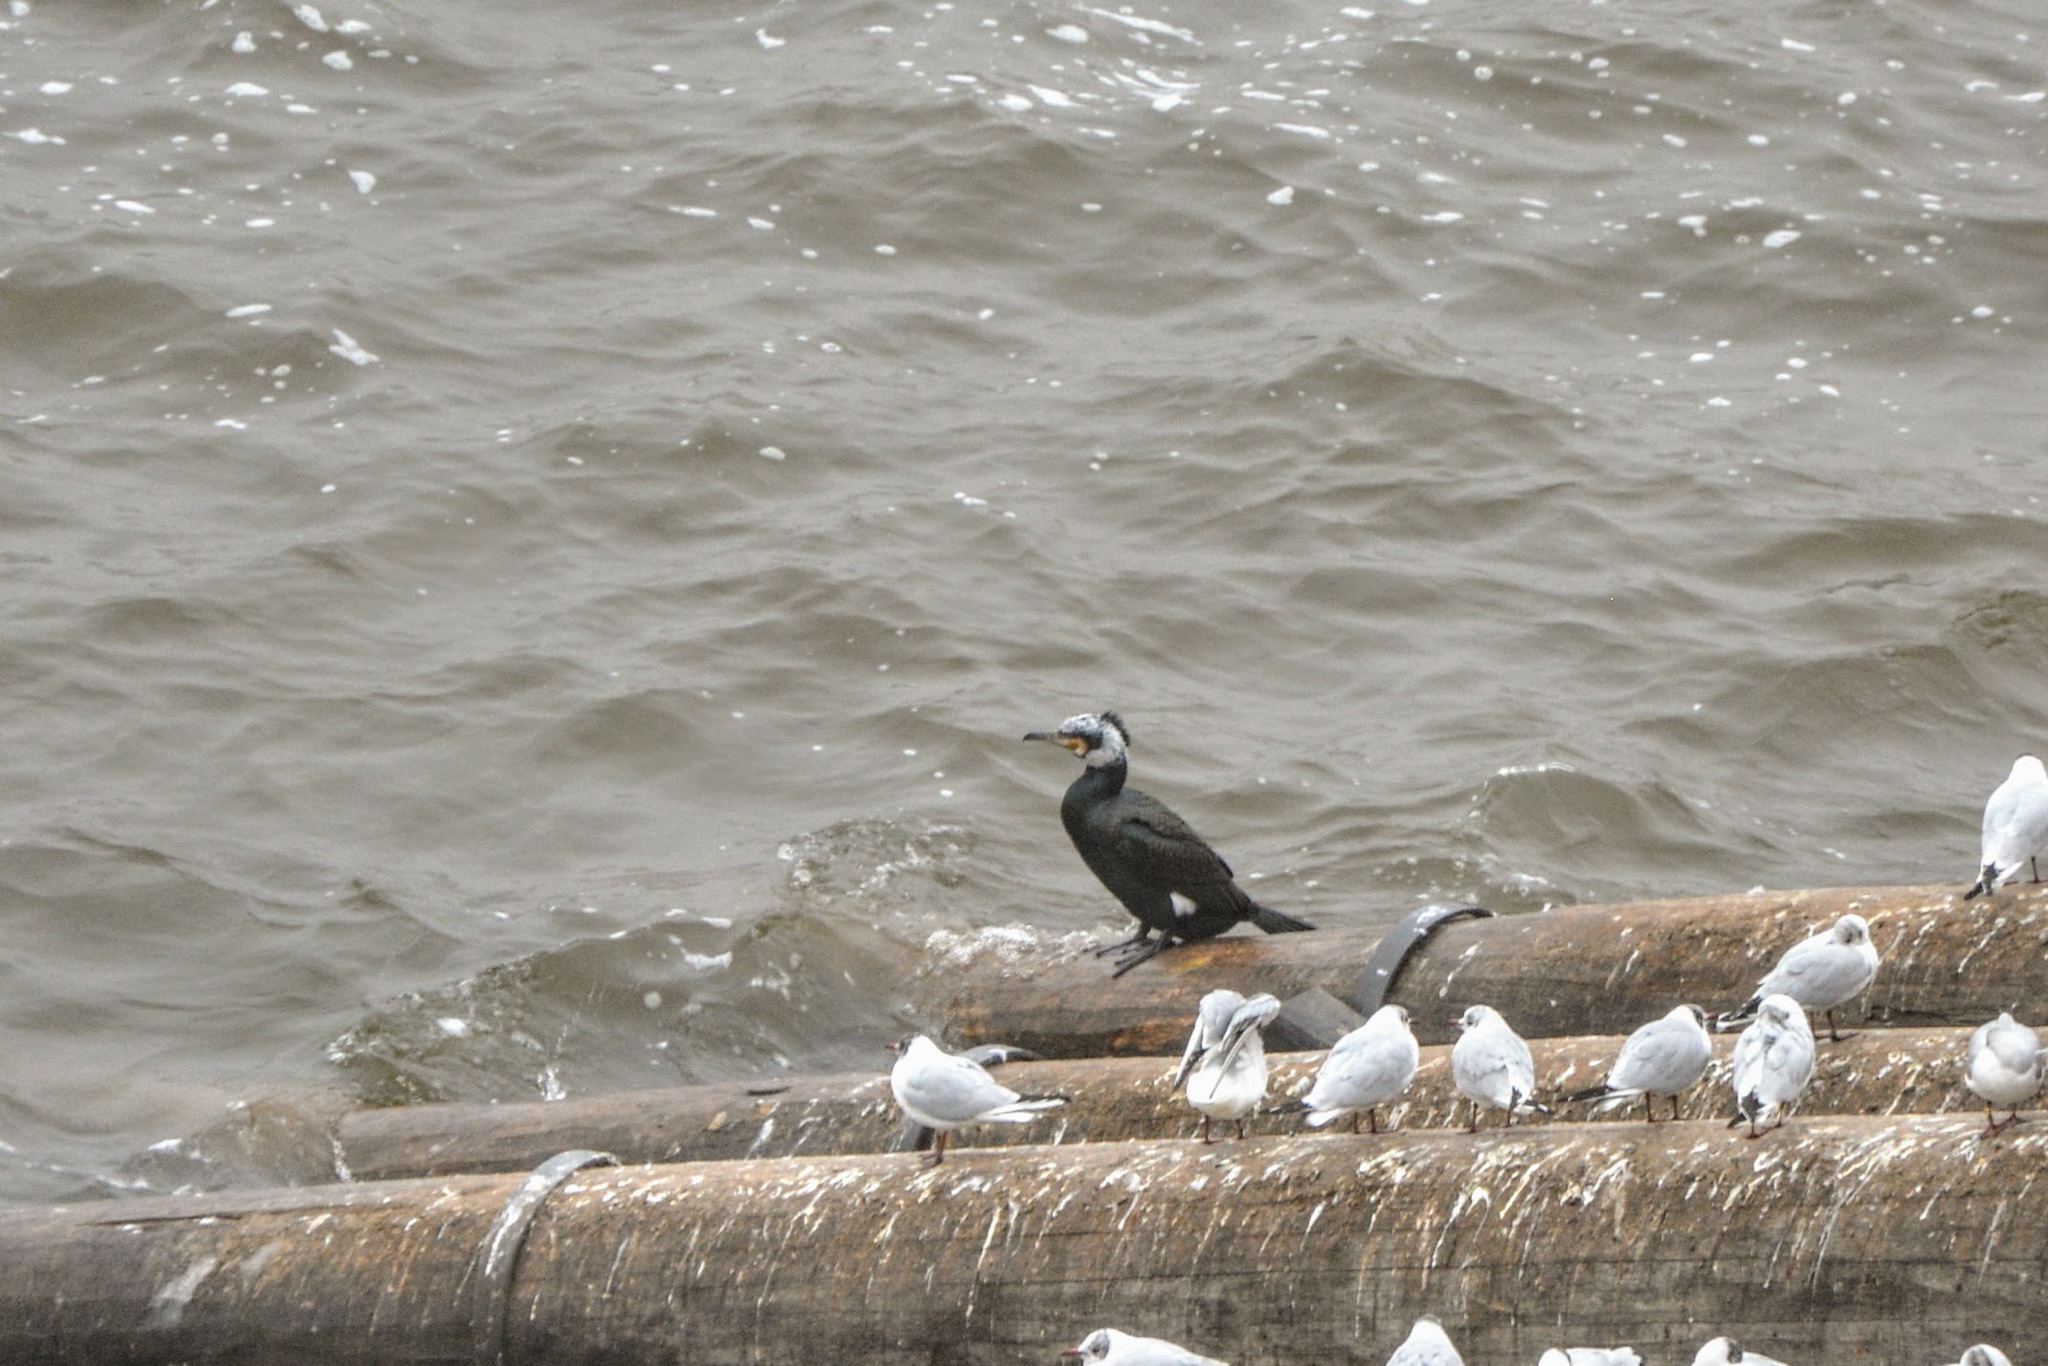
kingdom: Animalia
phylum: Chordata
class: Aves
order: Suliformes
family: Phalacrocoracidae
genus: Phalacrocorax
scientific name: Phalacrocorax carbo
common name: Great cormorant
